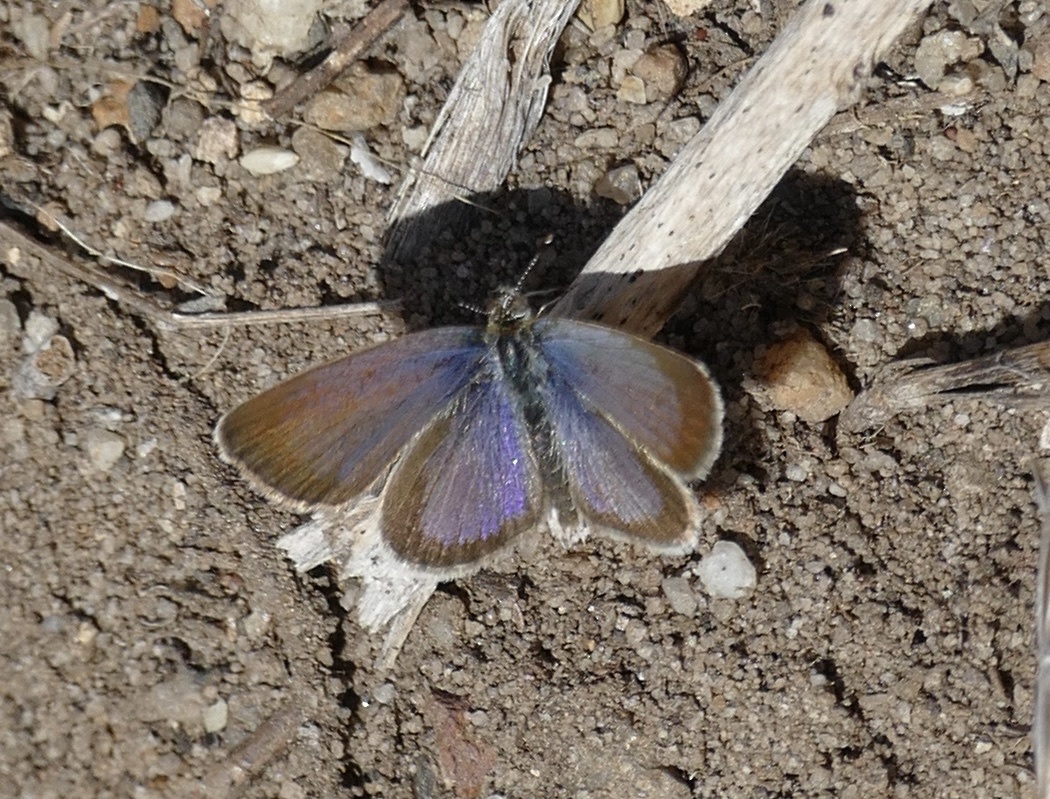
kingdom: Animalia
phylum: Arthropoda
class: Insecta
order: Lepidoptera
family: Lycaenidae
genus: Zizeeria
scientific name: Zizeeria knysna
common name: African grass blue
